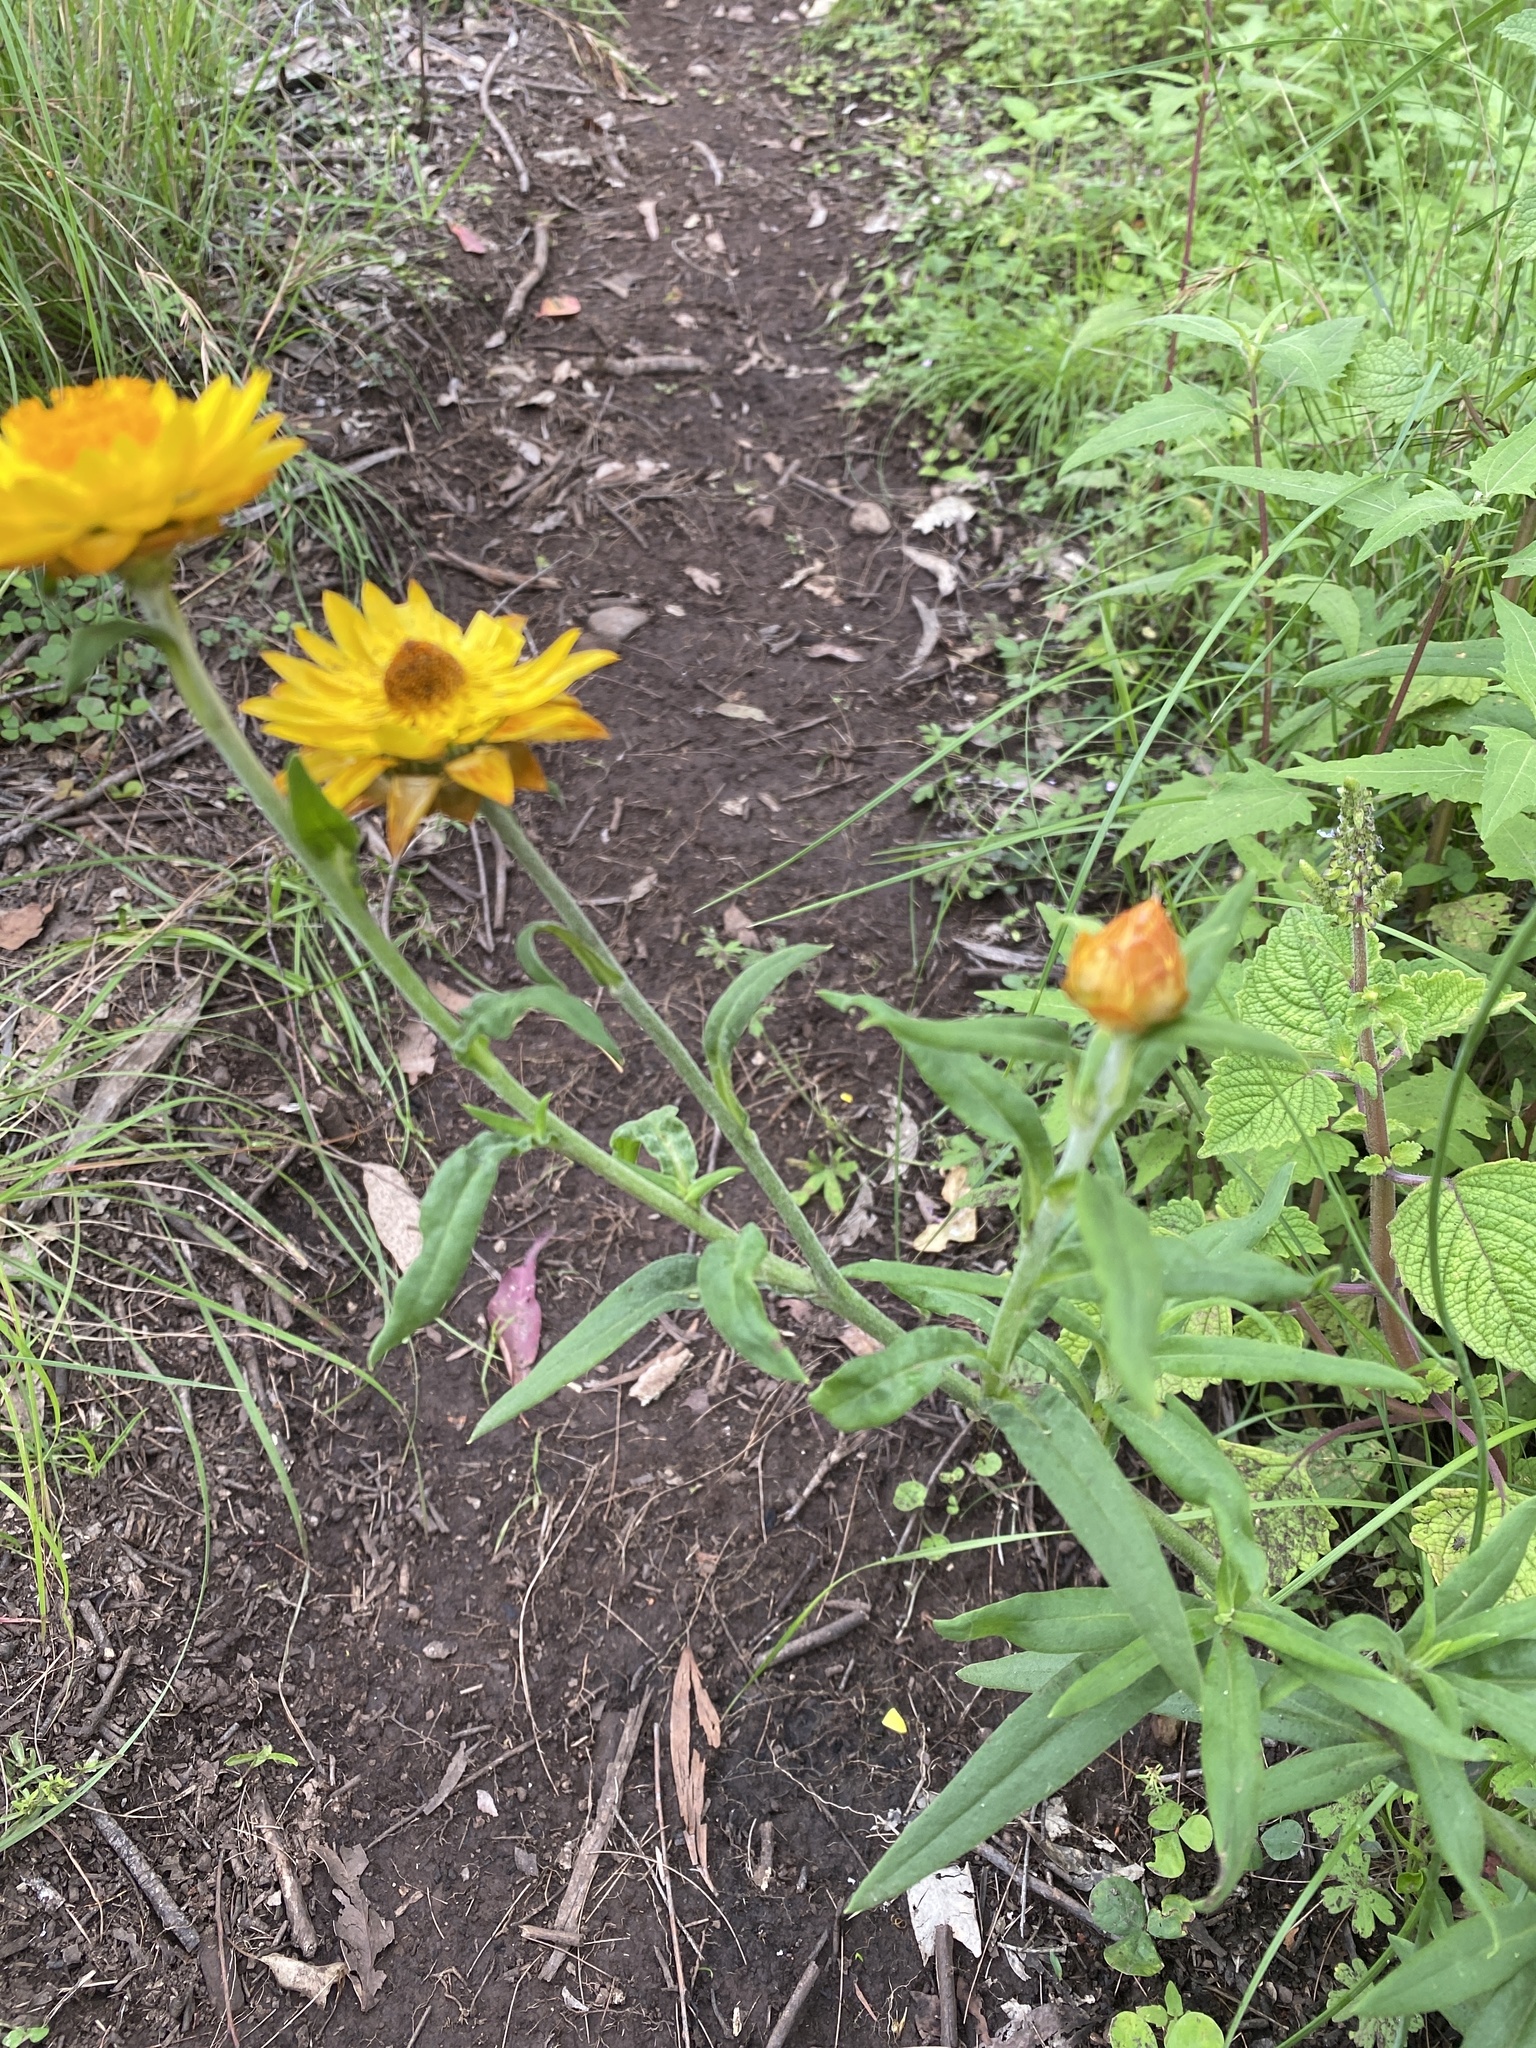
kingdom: Plantae
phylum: Tracheophyta
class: Magnoliopsida
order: Asterales
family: Asteraceae
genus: Xerochrysum
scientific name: Xerochrysum bracteatum
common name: Bracted strawflower
